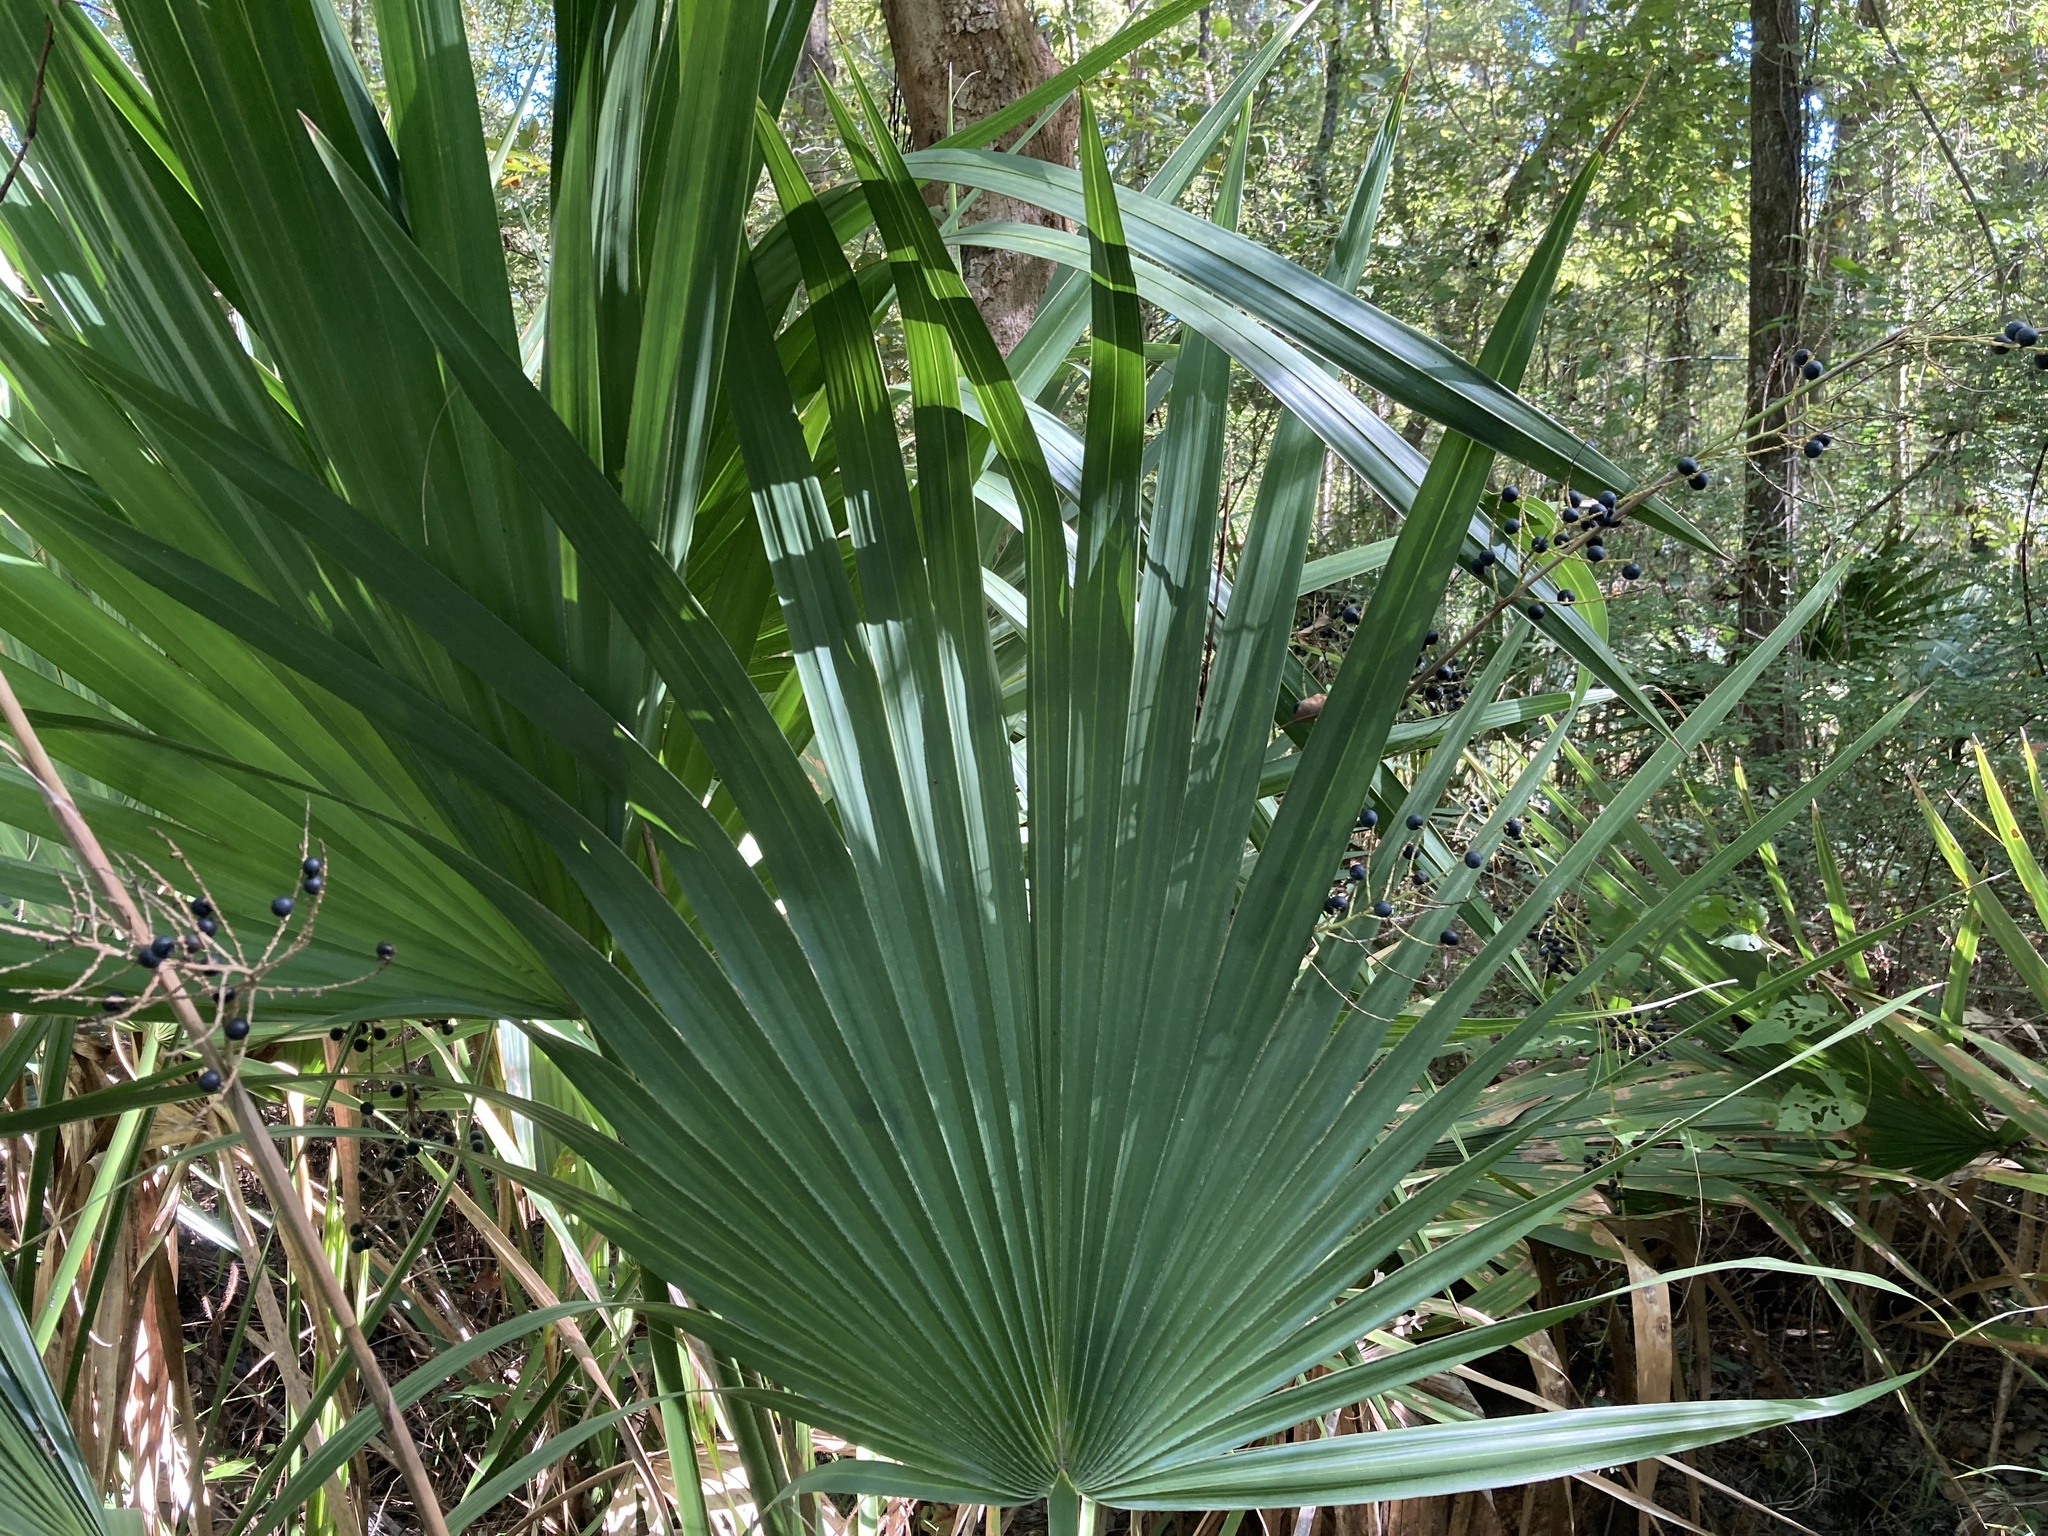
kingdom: Plantae
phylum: Tracheophyta
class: Liliopsida
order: Arecales
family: Arecaceae
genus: Sabal
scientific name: Sabal minor
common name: Dwarf palmetto
